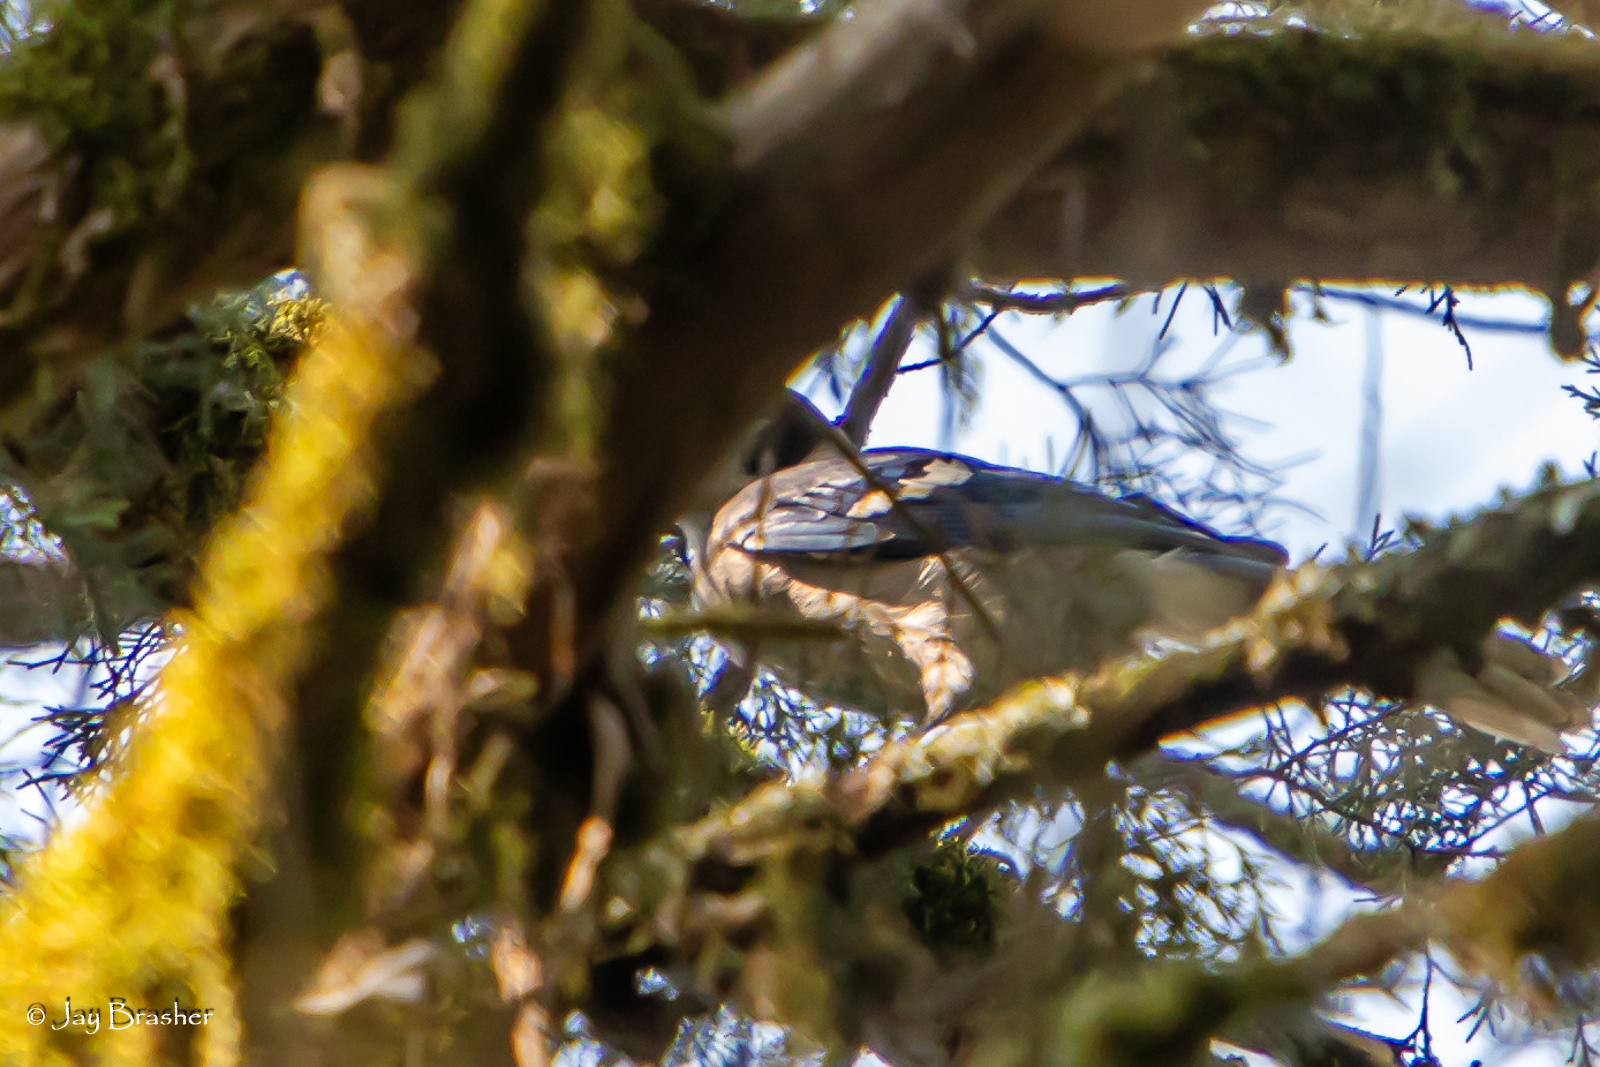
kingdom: Animalia
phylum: Chordata
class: Aves
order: Passeriformes
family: Corvidae
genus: Cyanocitta
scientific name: Cyanocitta cristata
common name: Blue jay
